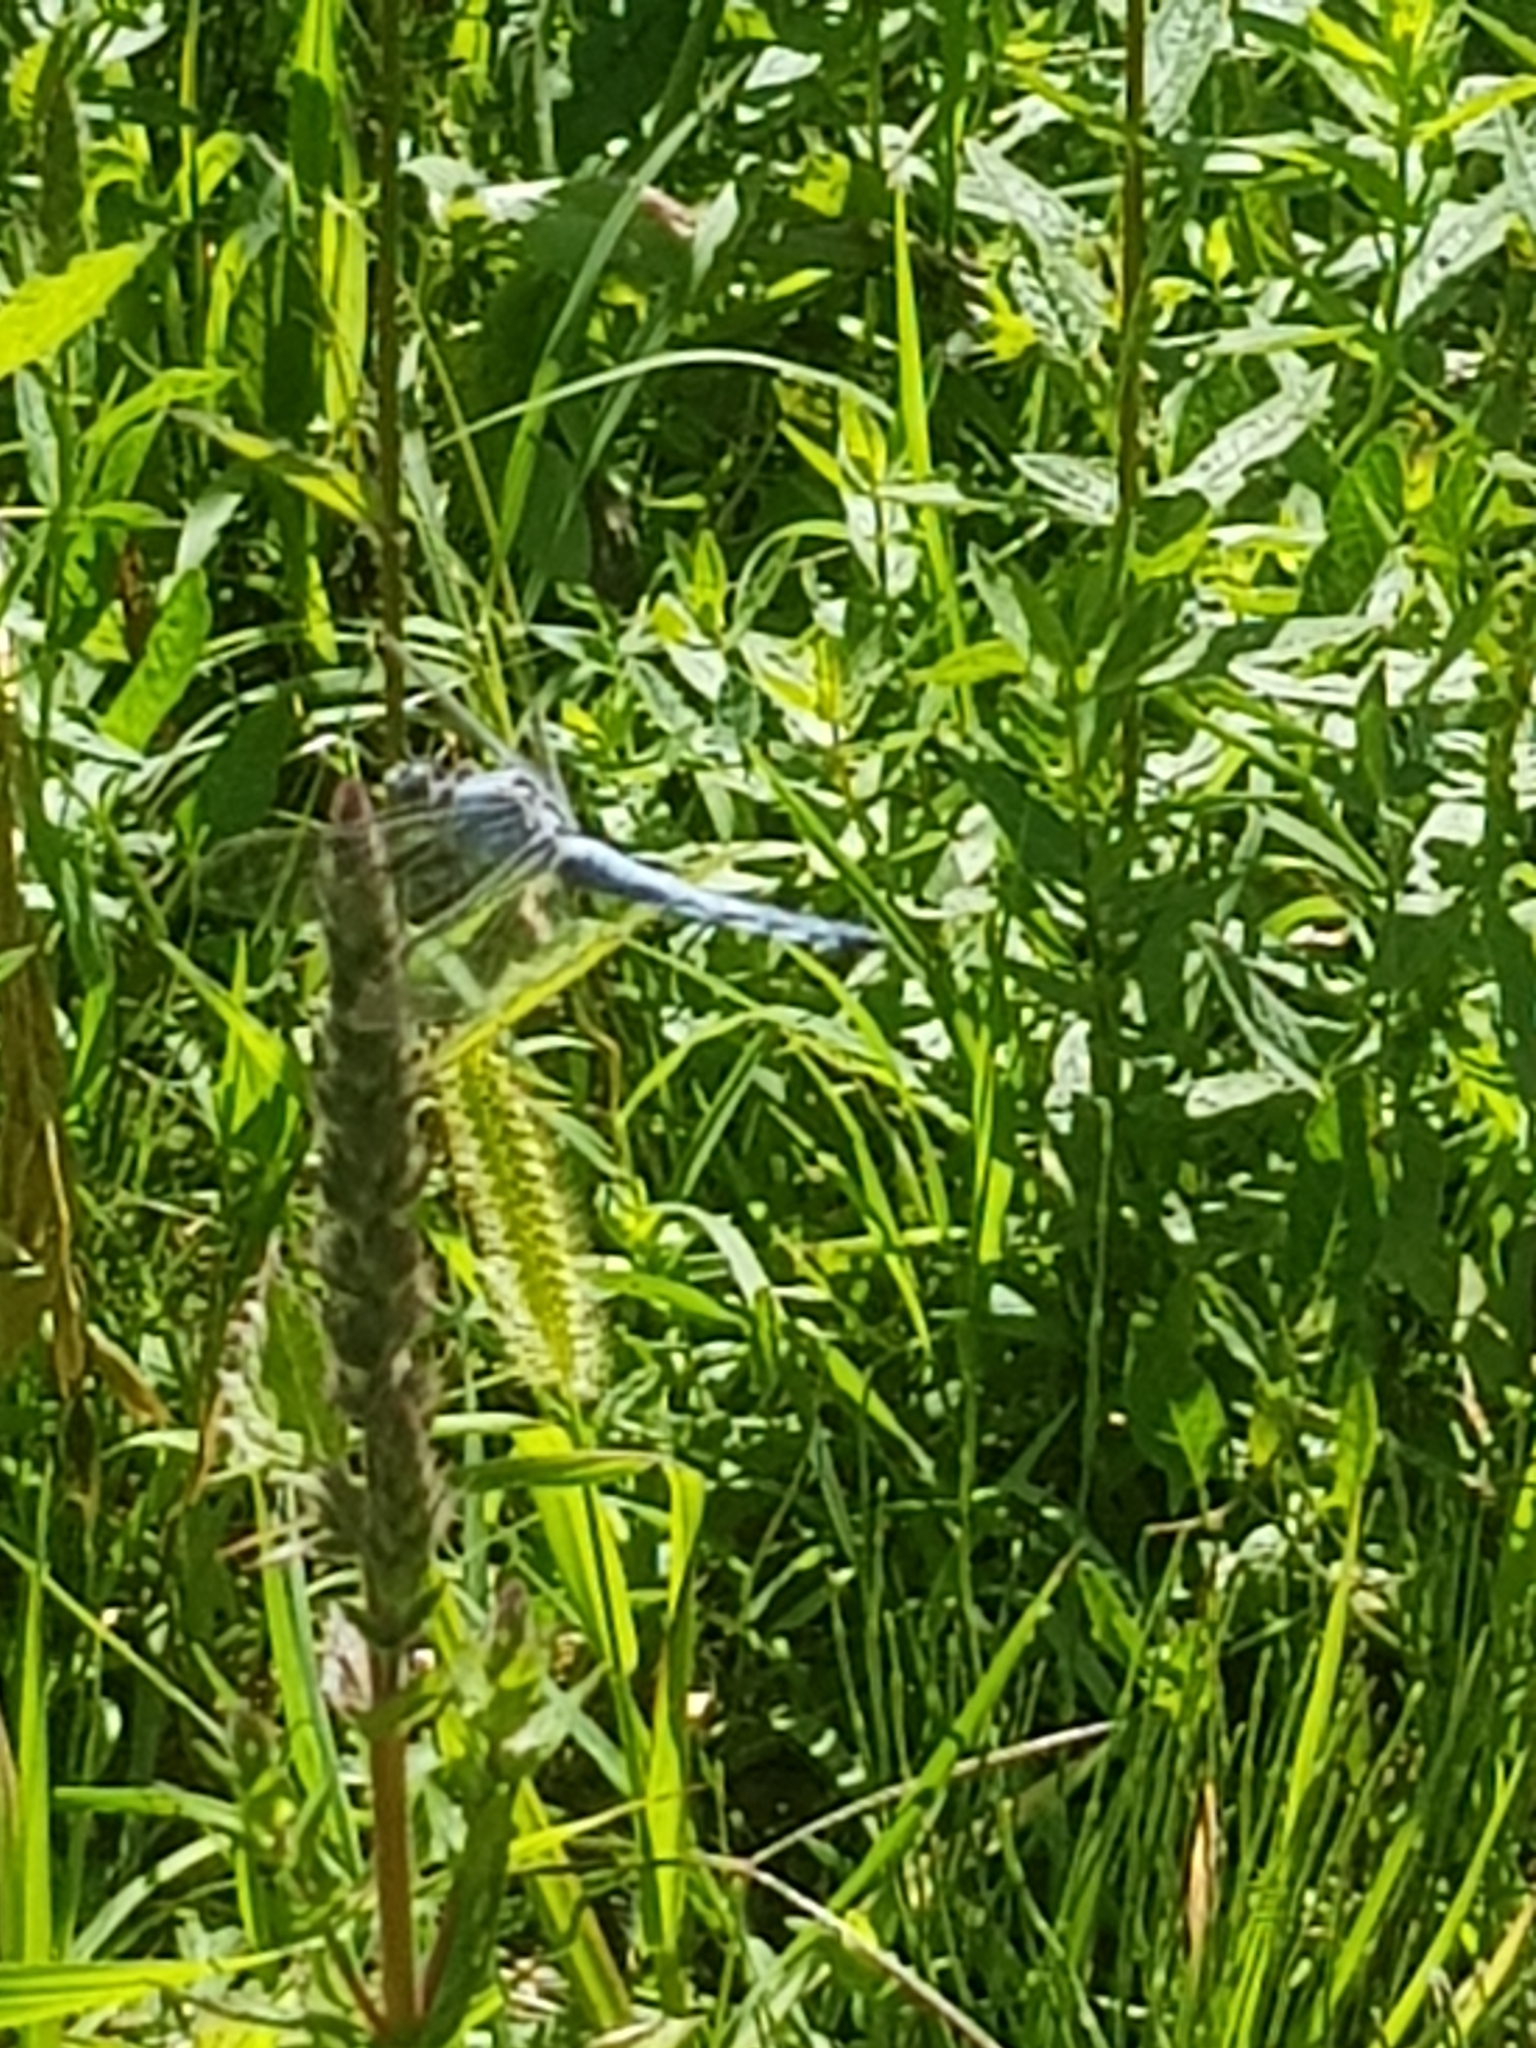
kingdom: Animalia
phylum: Arthropoda
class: Insecta
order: Odonata
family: Libellulidae
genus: Orthetrum
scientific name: Orthetrum brunneum
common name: Southern skimmer
